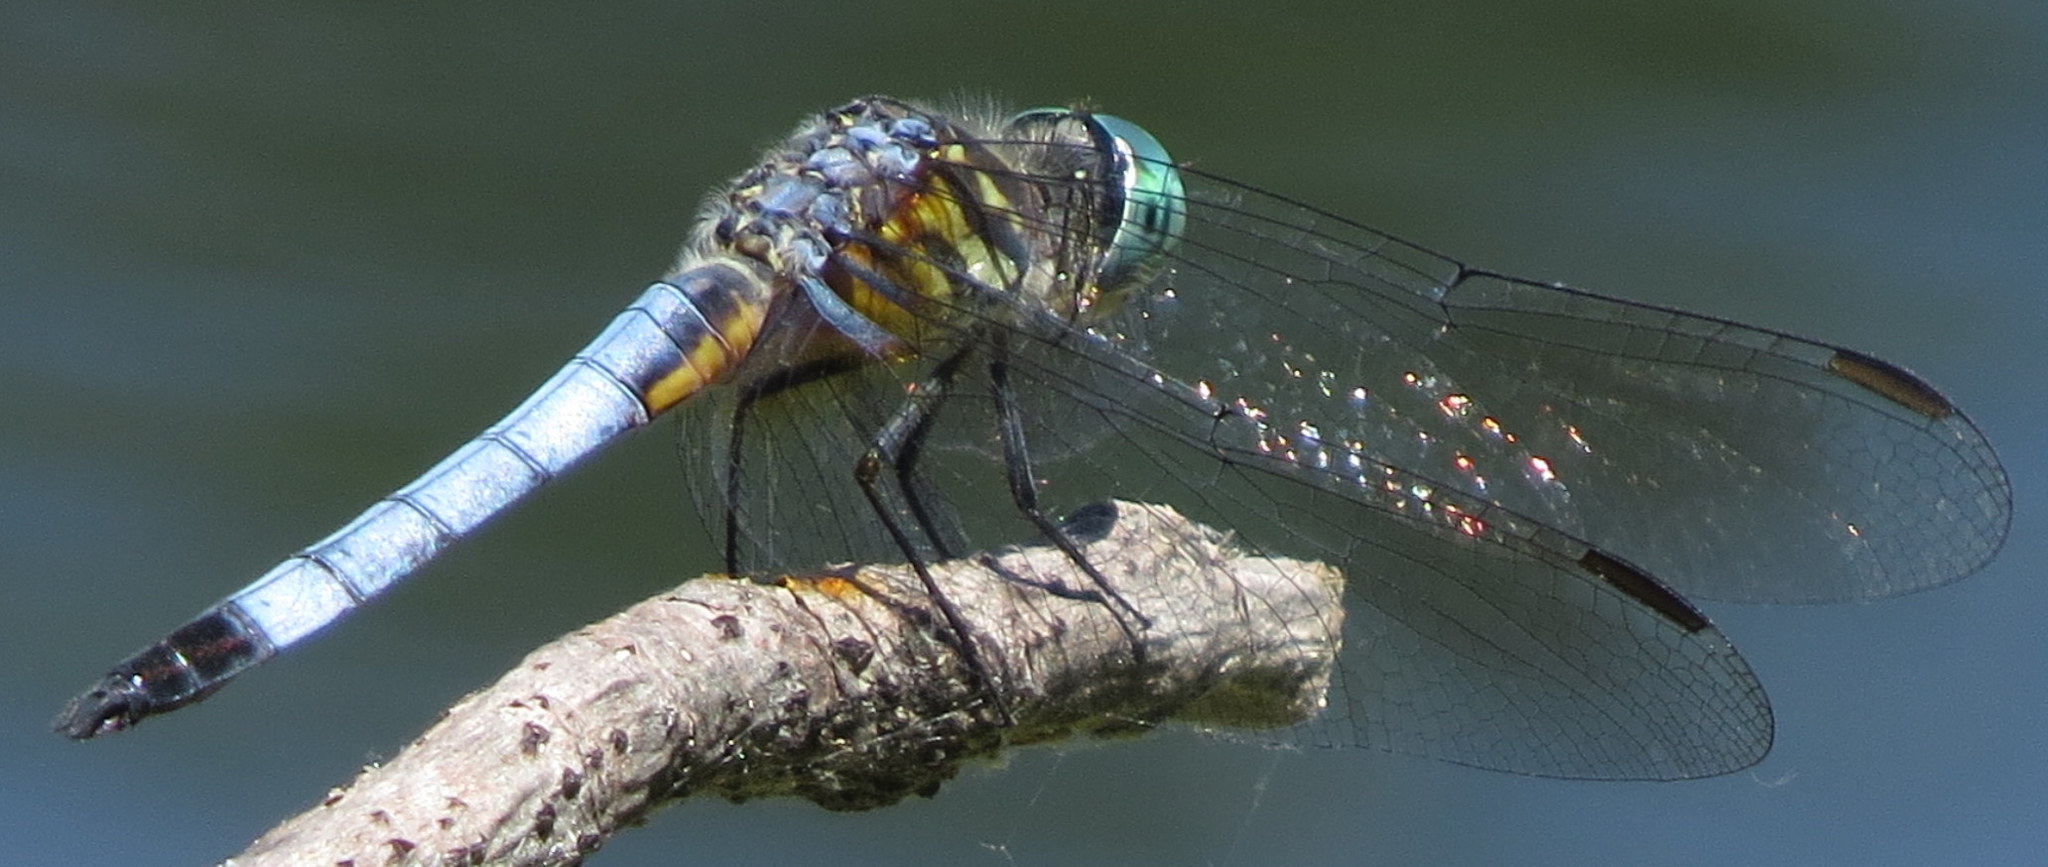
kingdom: Animalia
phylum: Arthropoda
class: Insecta
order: Odonata
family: Libellulidae
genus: Pachydiplax
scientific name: Pachydiplax longipennis
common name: Blue dasher
